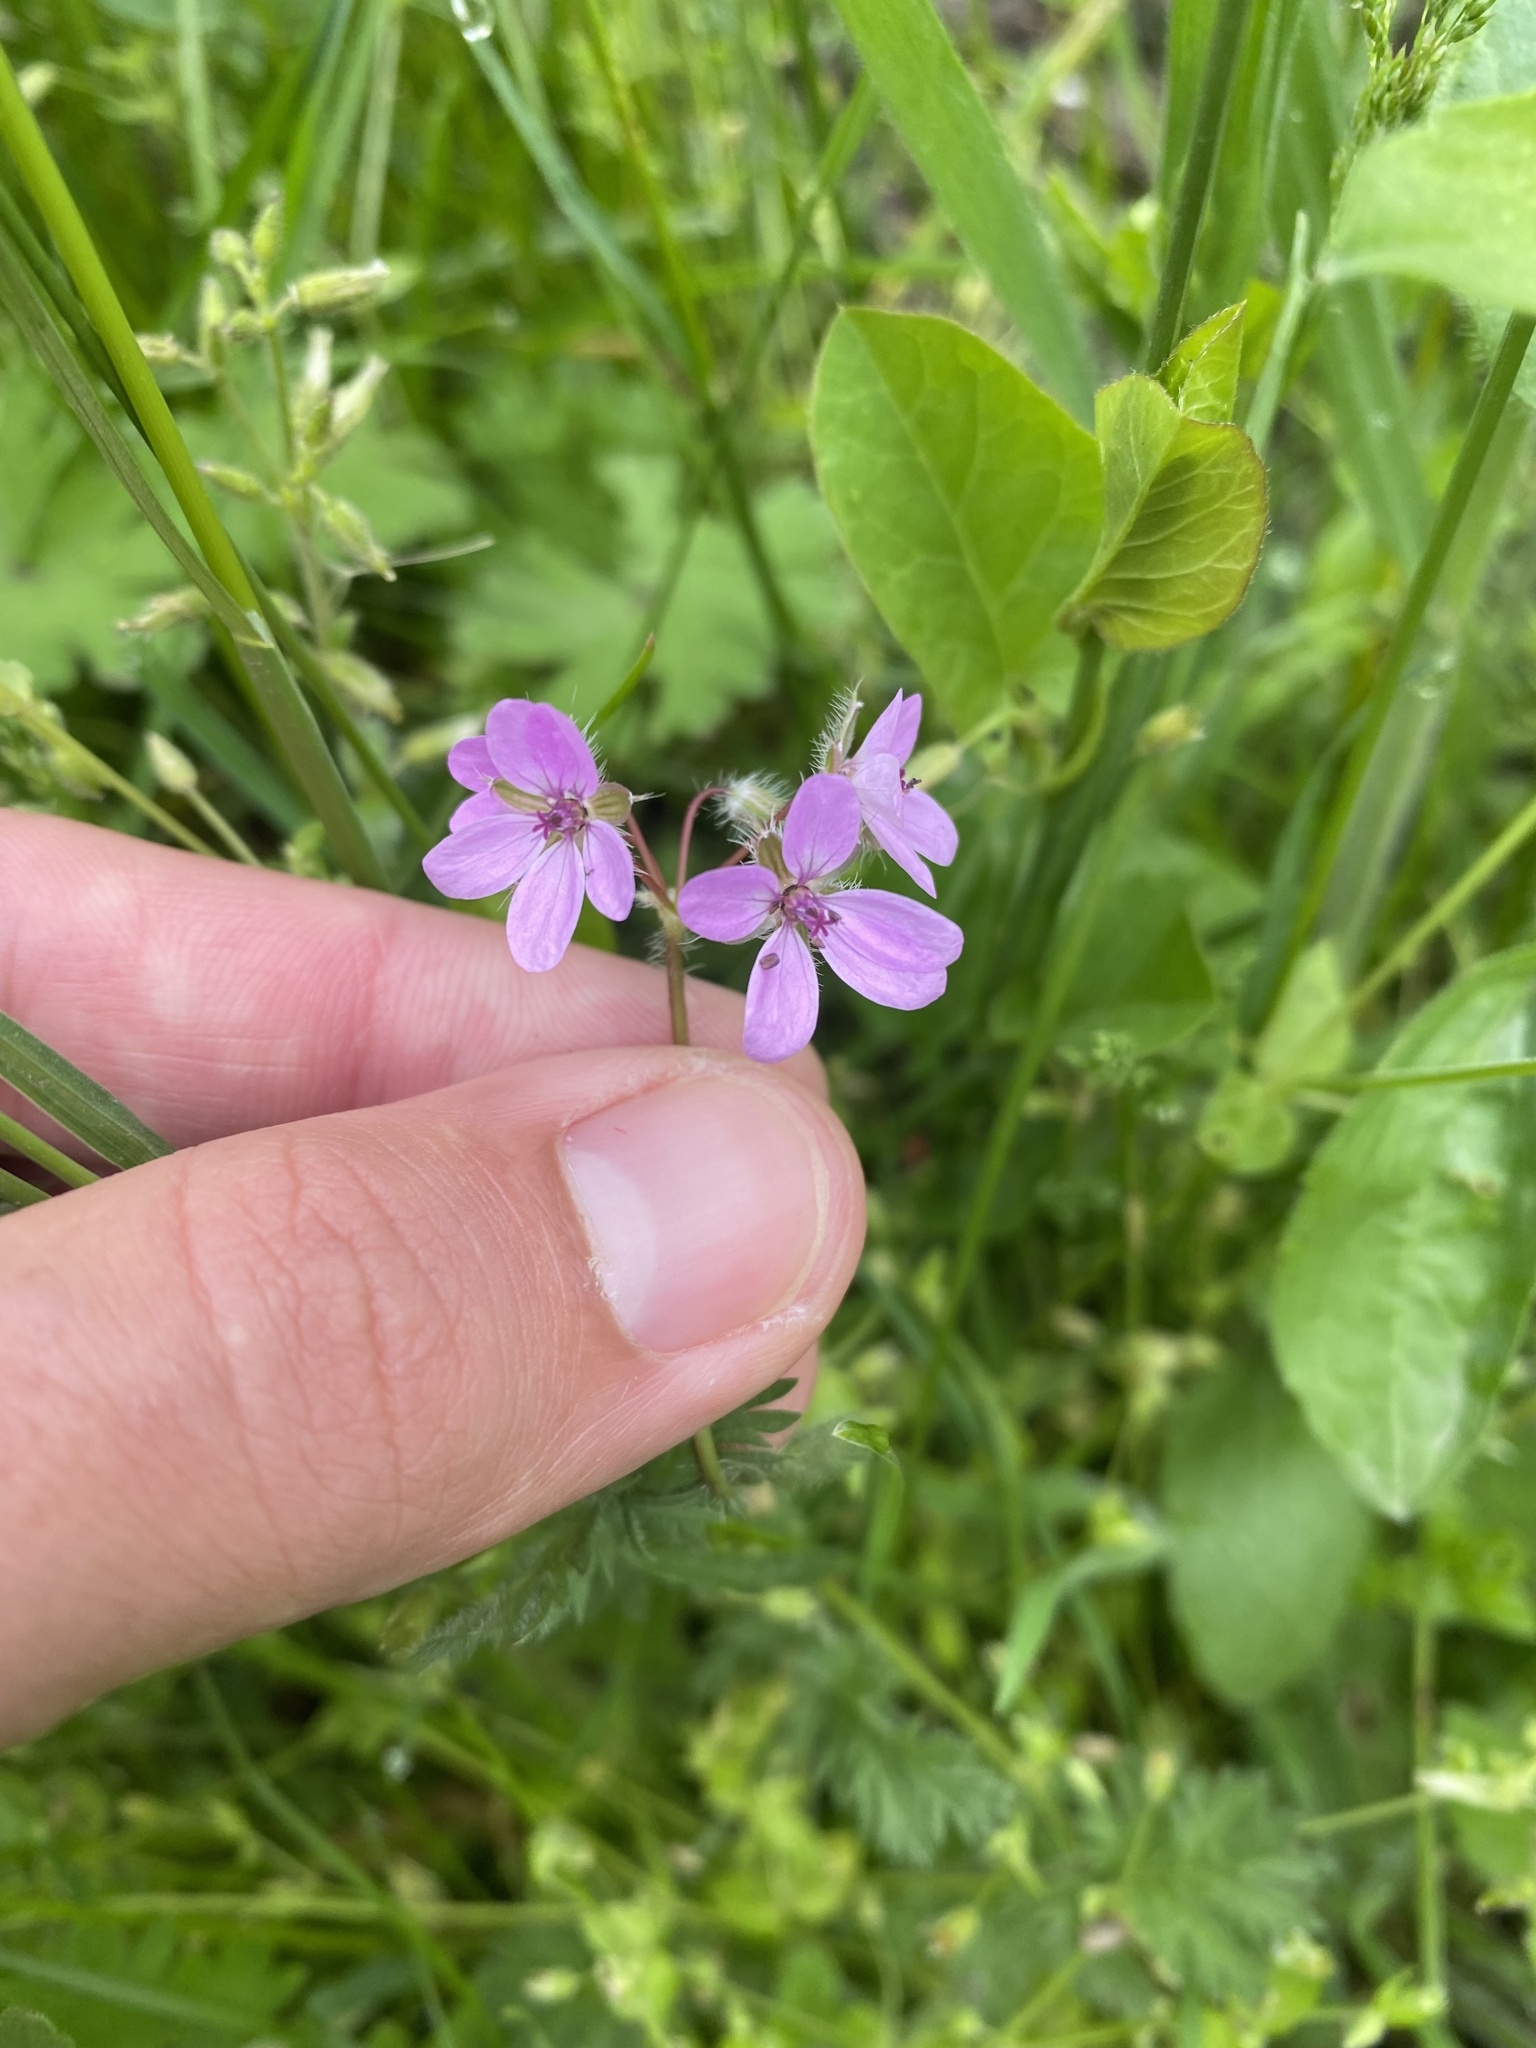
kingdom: Plantae
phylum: Tracheophyta
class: Magnoliopsida
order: Geraniales
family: Geraniaceae
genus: Erodium
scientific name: Erodium cicutarium
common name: Common stork's-bill
